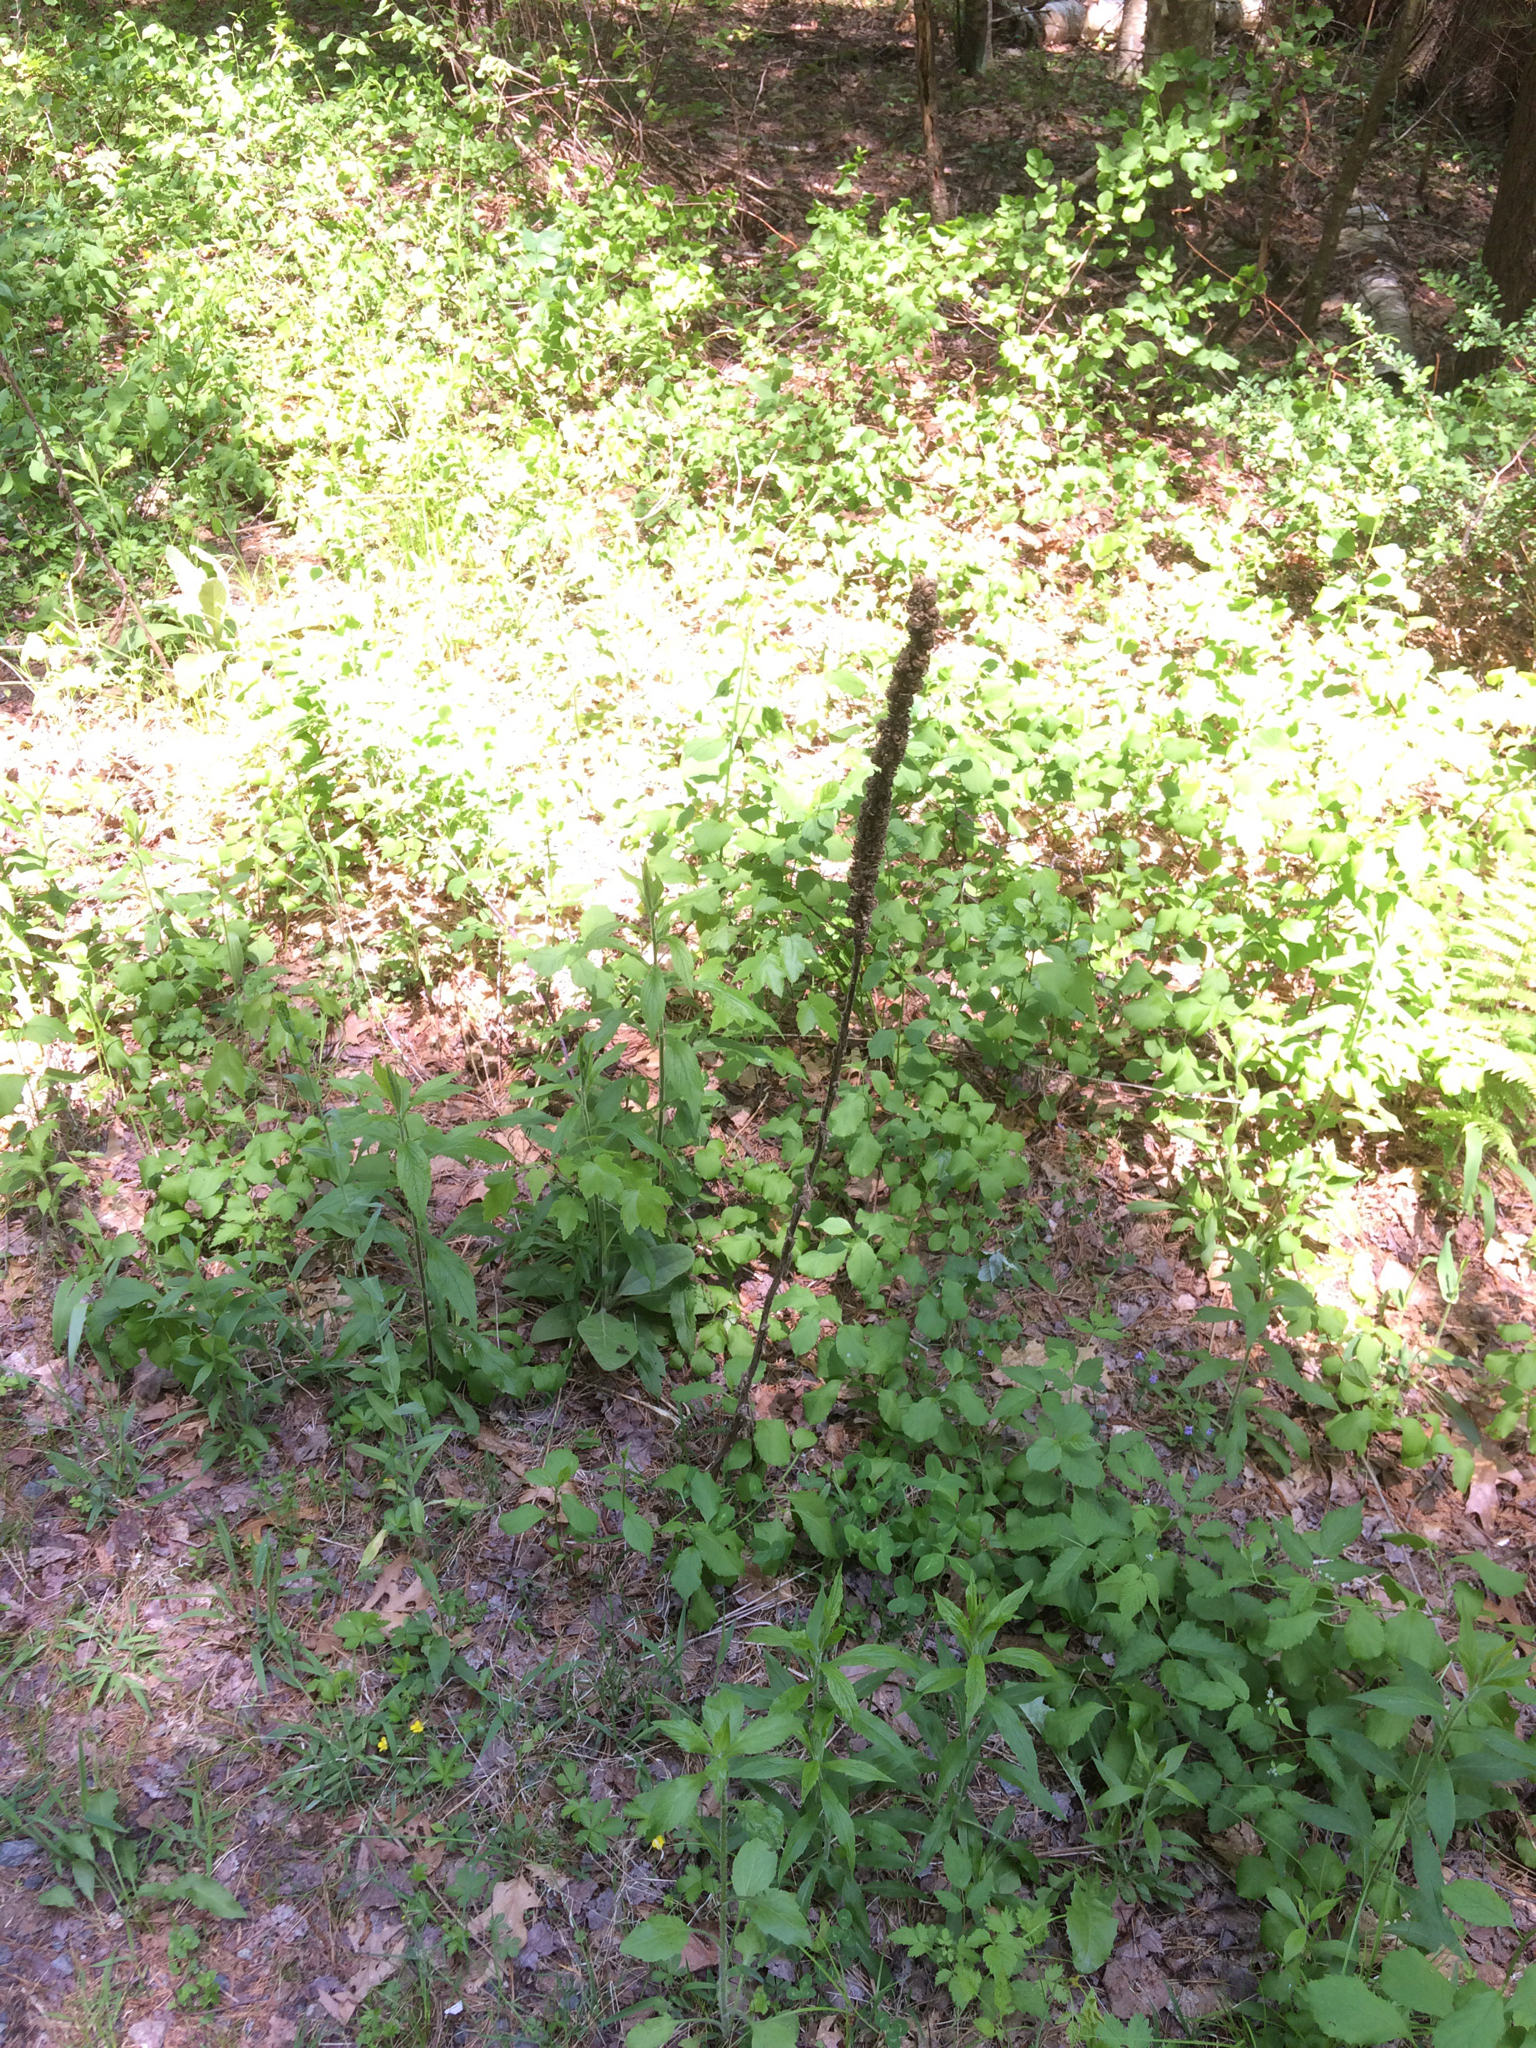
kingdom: Plantae
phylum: Tracheophyta
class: Magnoliopsida
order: Lamiales
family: Scrophulariaceae
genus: Verbascum
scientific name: Verbascum thapsus
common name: Common mullein
